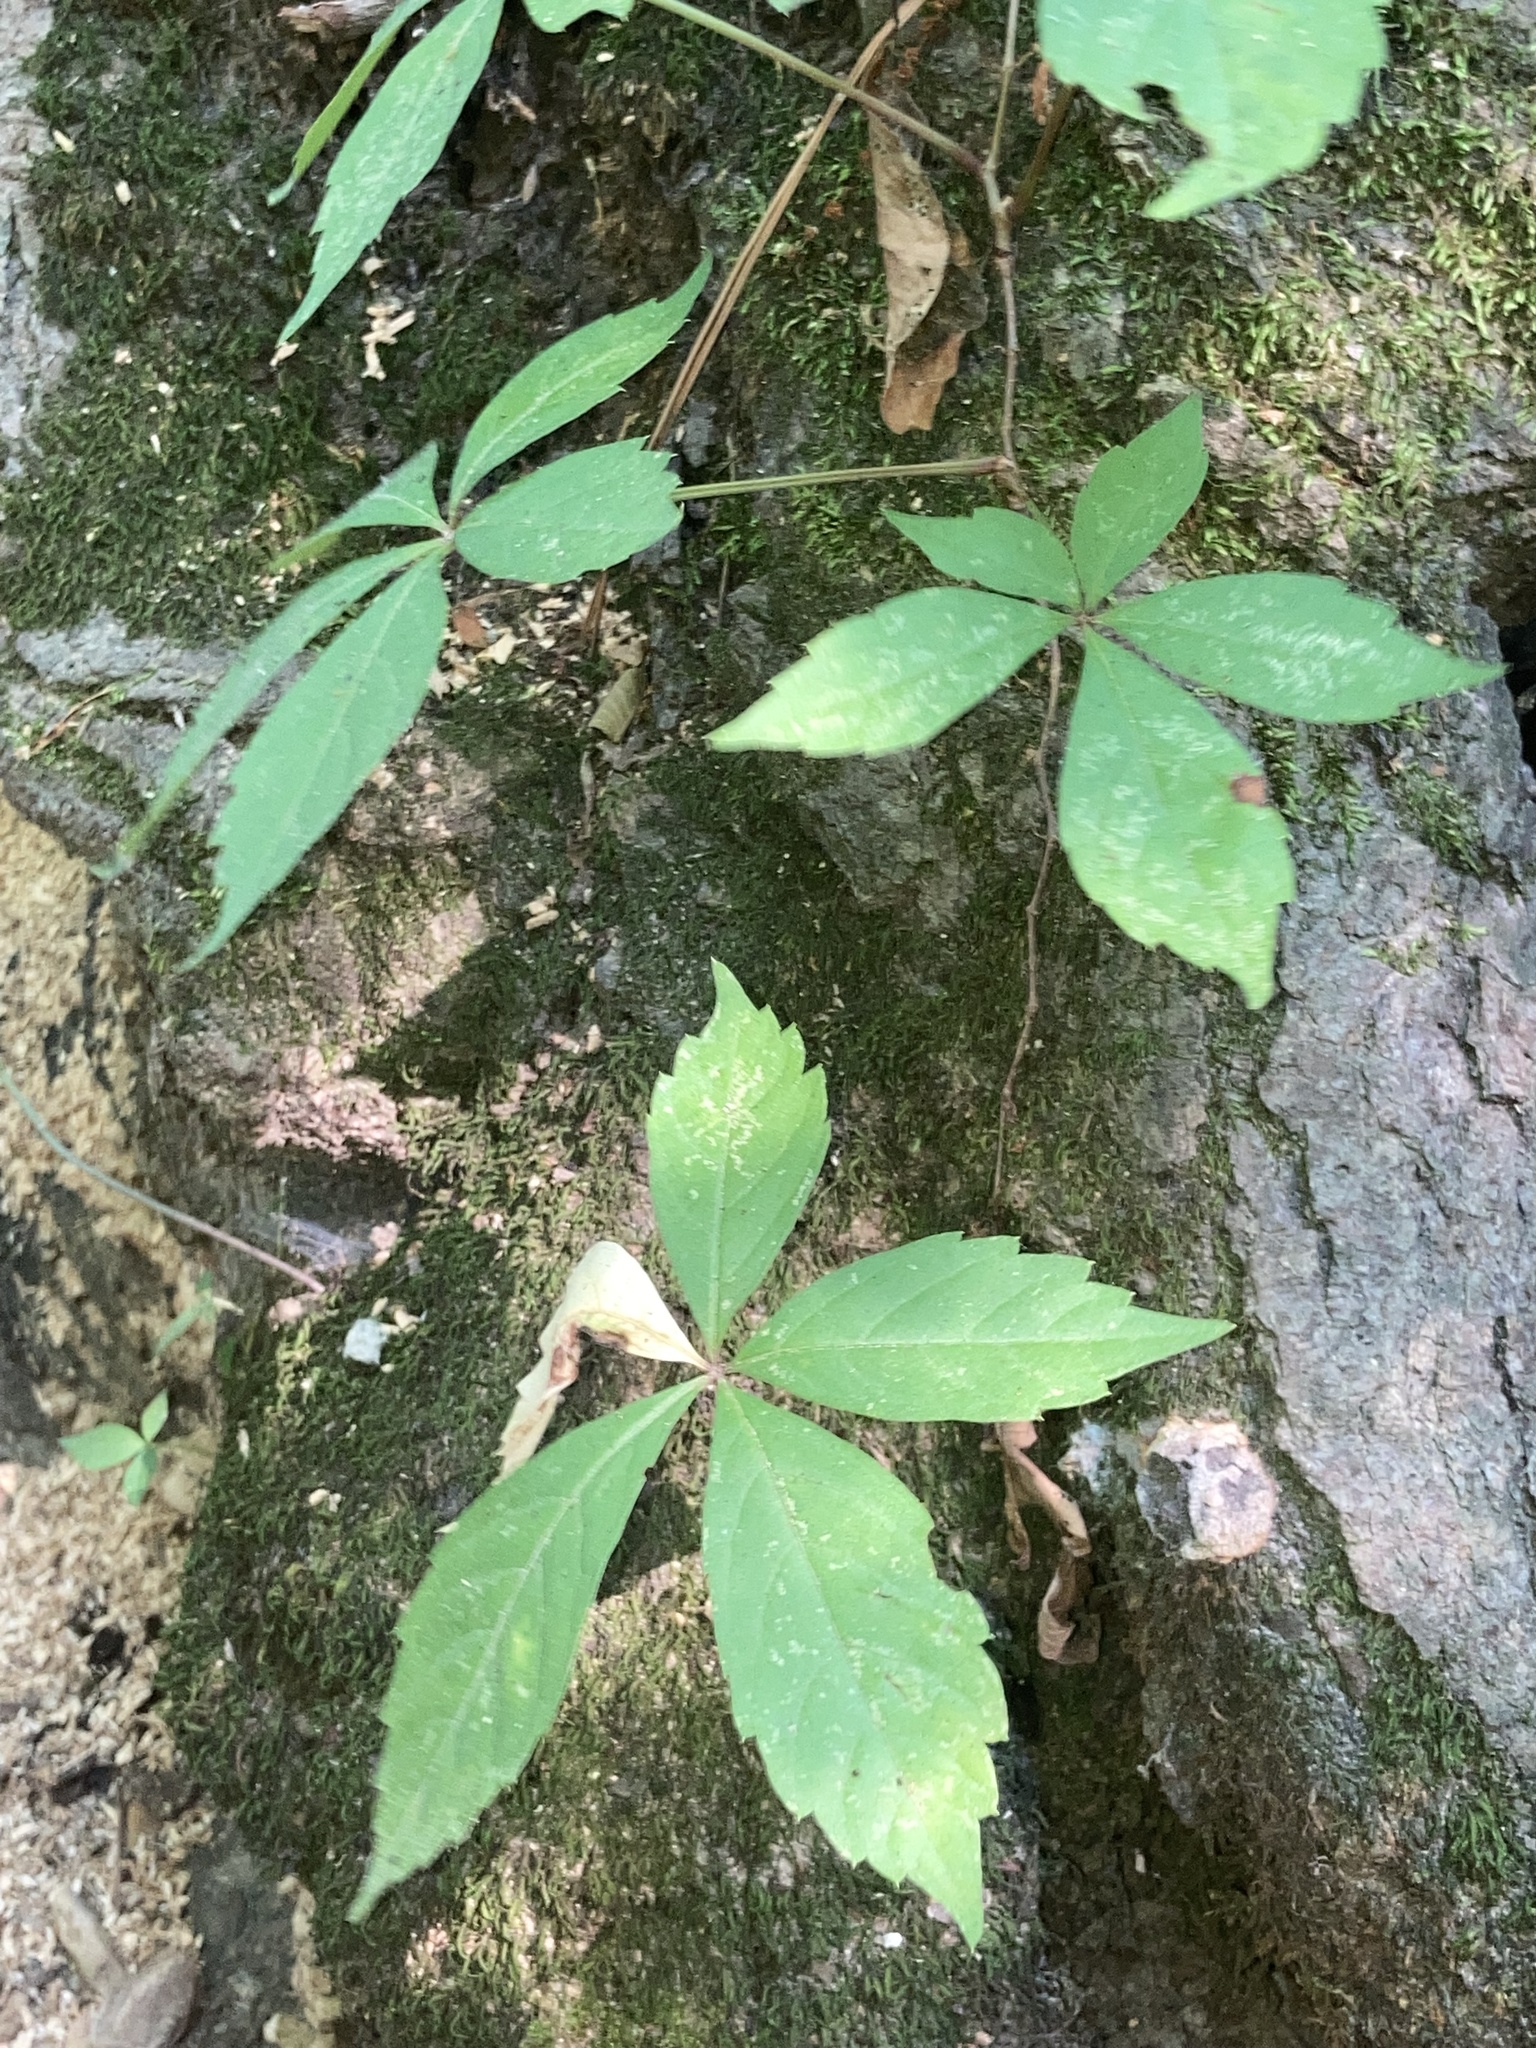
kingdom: Plantae
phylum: Tracheophyta
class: Magnoliopsida
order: Vitales
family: Vitaceae
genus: Parthenocissus
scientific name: Parthenocissus quinquefolia
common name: Virginia-creeper
